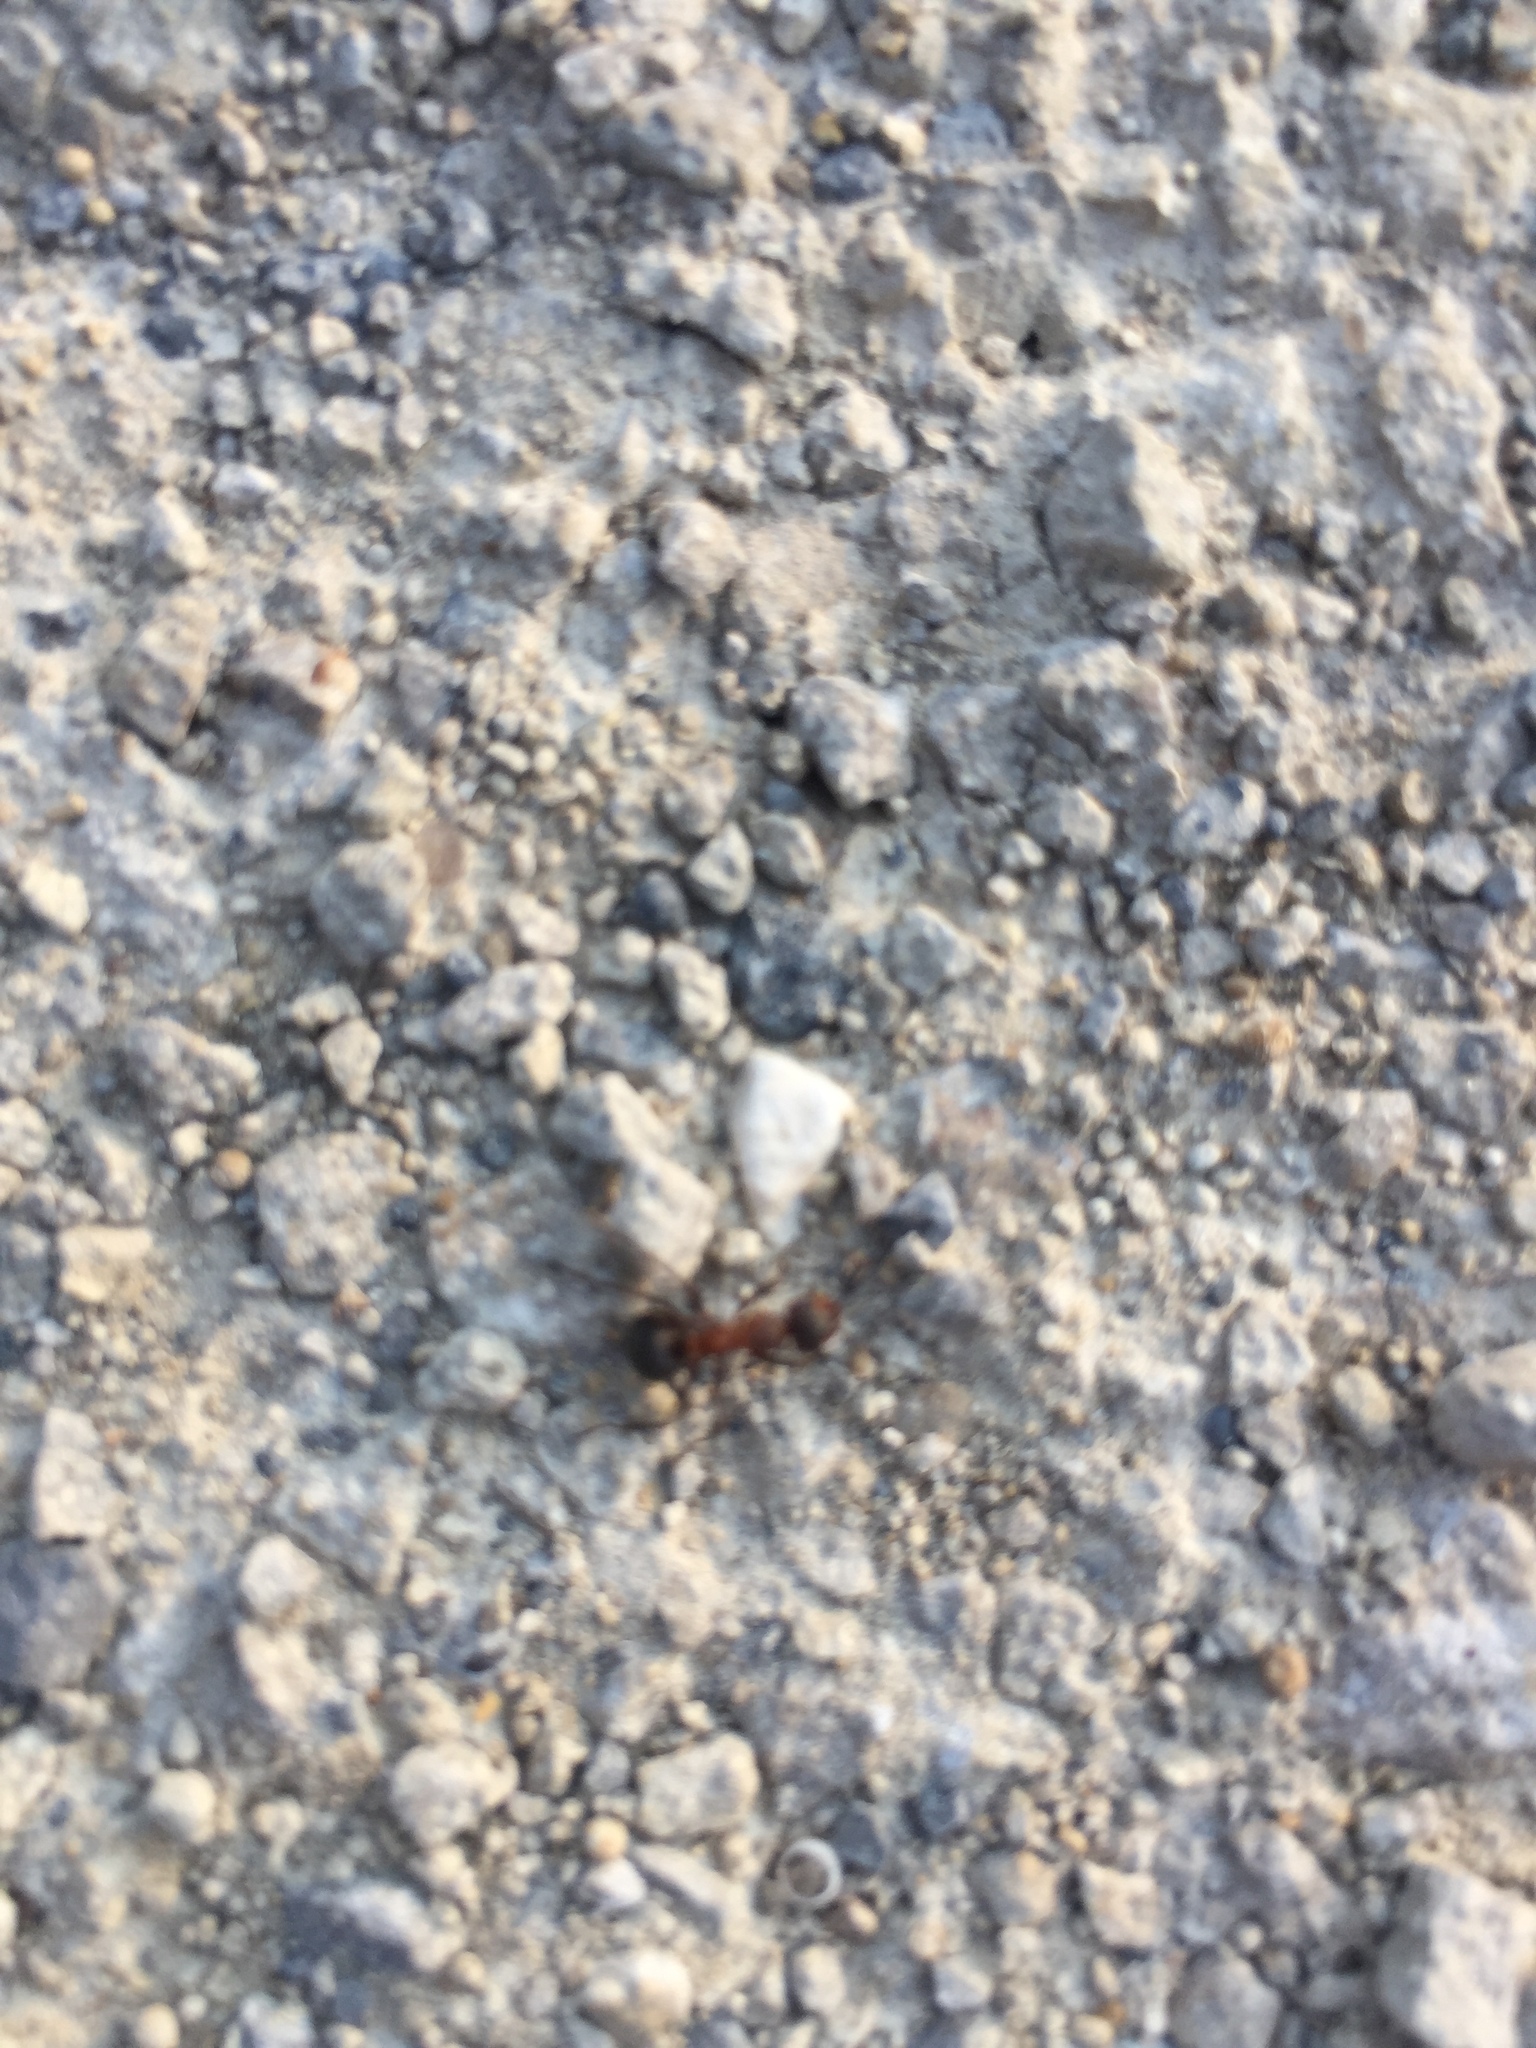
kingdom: Animalia
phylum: Arthropoda
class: Insecta
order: Hymenoptera
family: Formicidae
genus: Formica
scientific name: Formica
